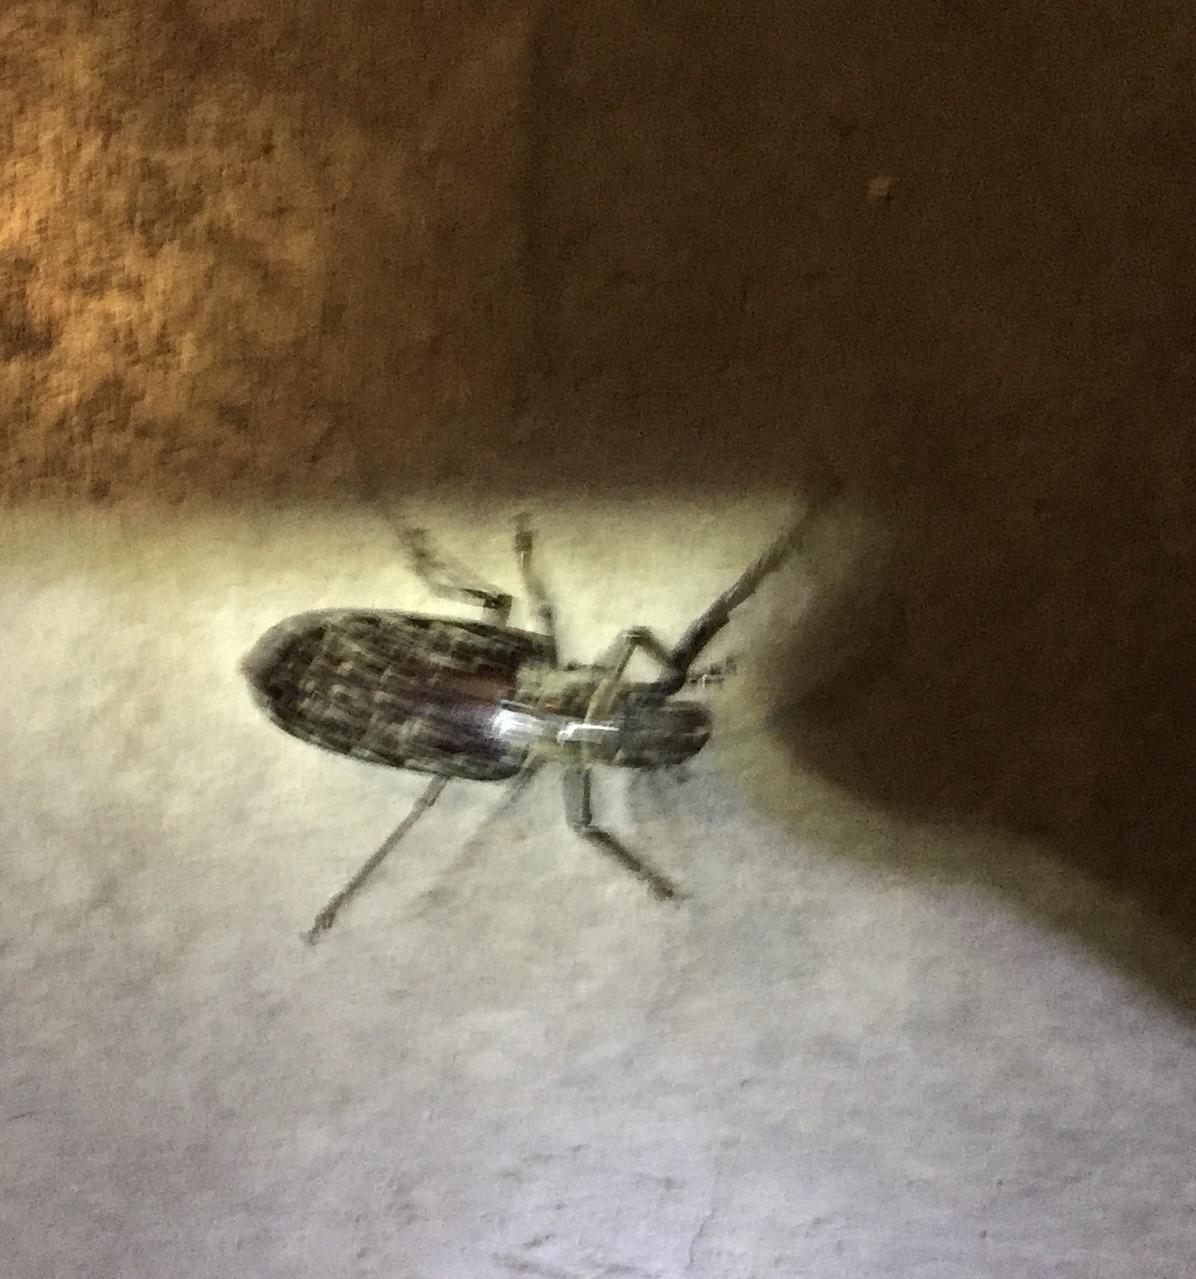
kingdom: Animalia
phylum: Arthropoda
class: Insecta
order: Coleoptera
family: Cerambycidae
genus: Tithoes
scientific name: Tithoes confinis
